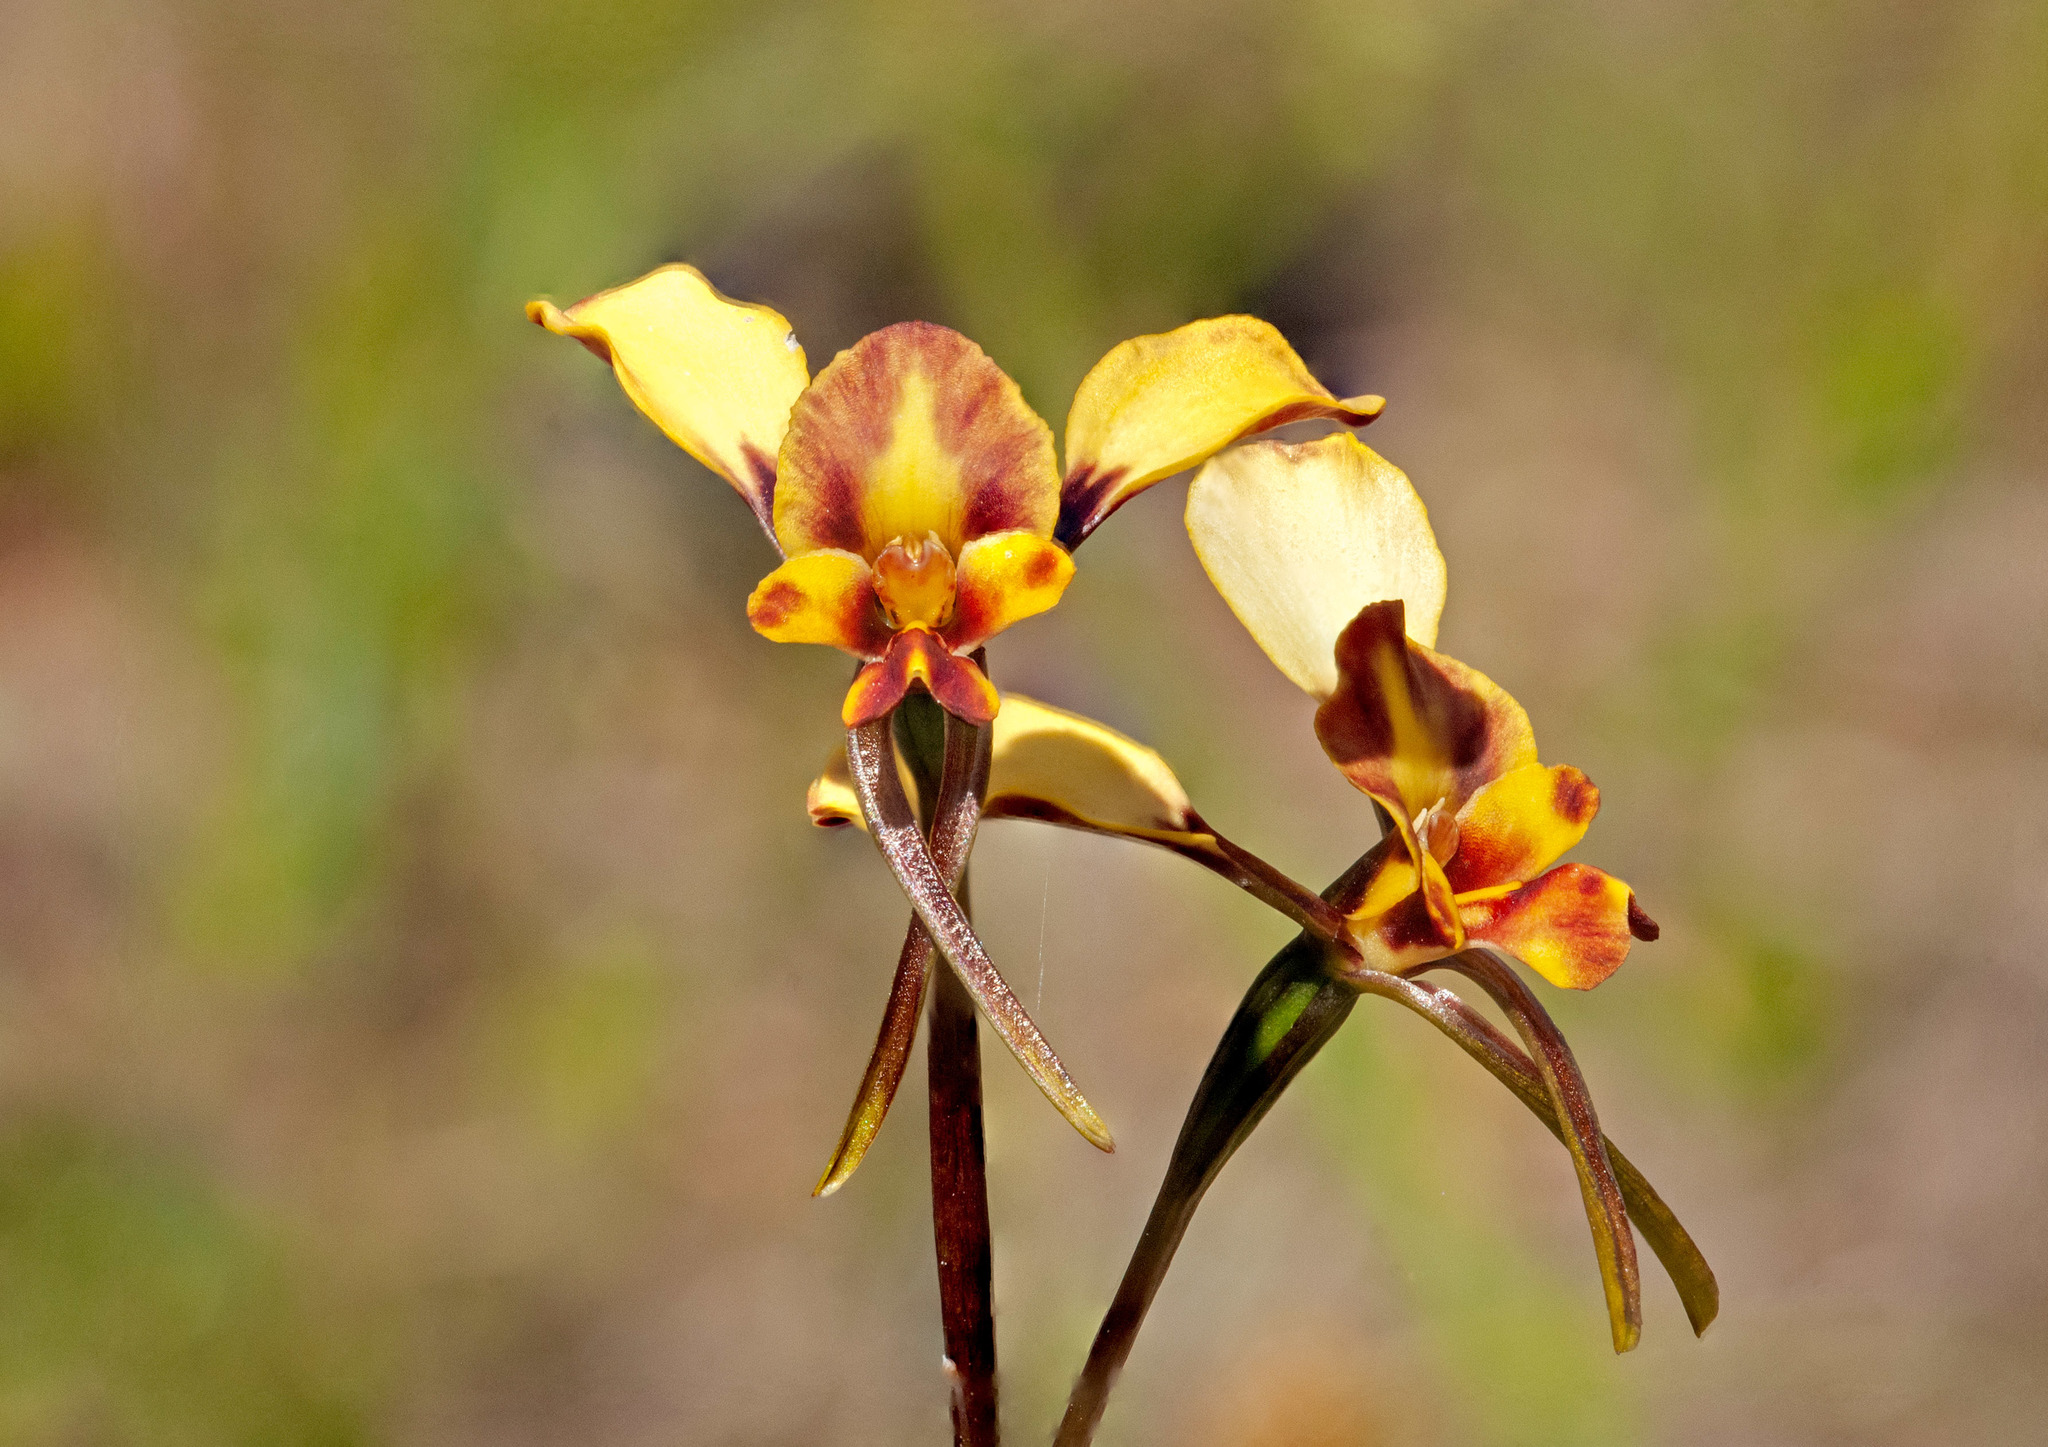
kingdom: Plantae
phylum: Tracheophyta
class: Liliopsida
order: Asparagales
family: Orchidaceae
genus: Diuris
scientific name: Diuris
